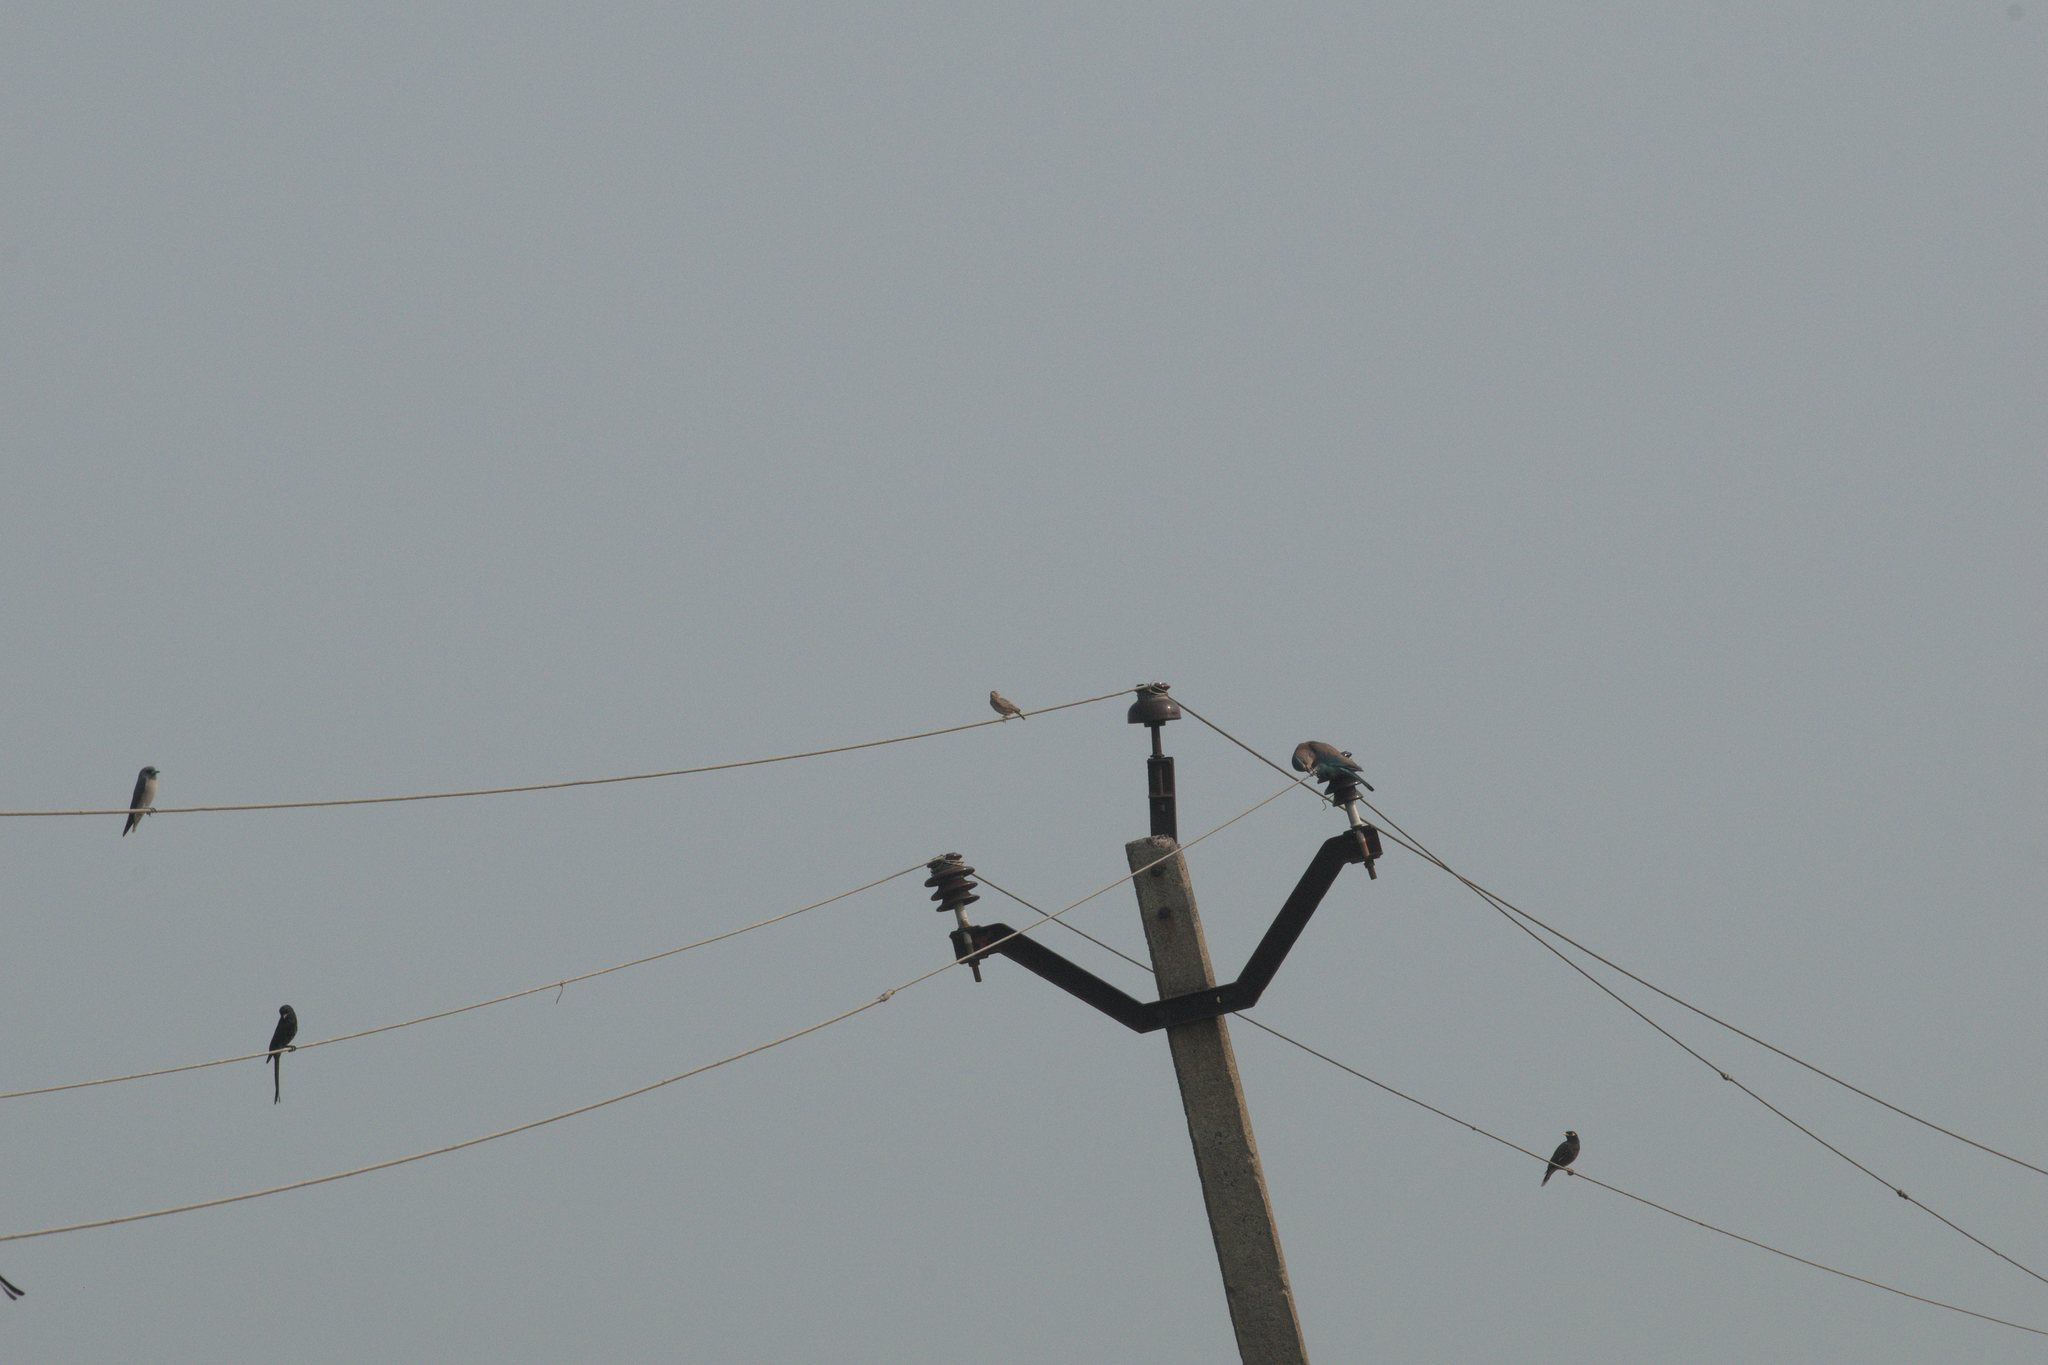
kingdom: Animalia
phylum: Chordata
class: Aves
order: Passeriformes
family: Dicruridae
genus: Dicrurus
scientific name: Dicrurus macrocercus
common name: Black drongo
